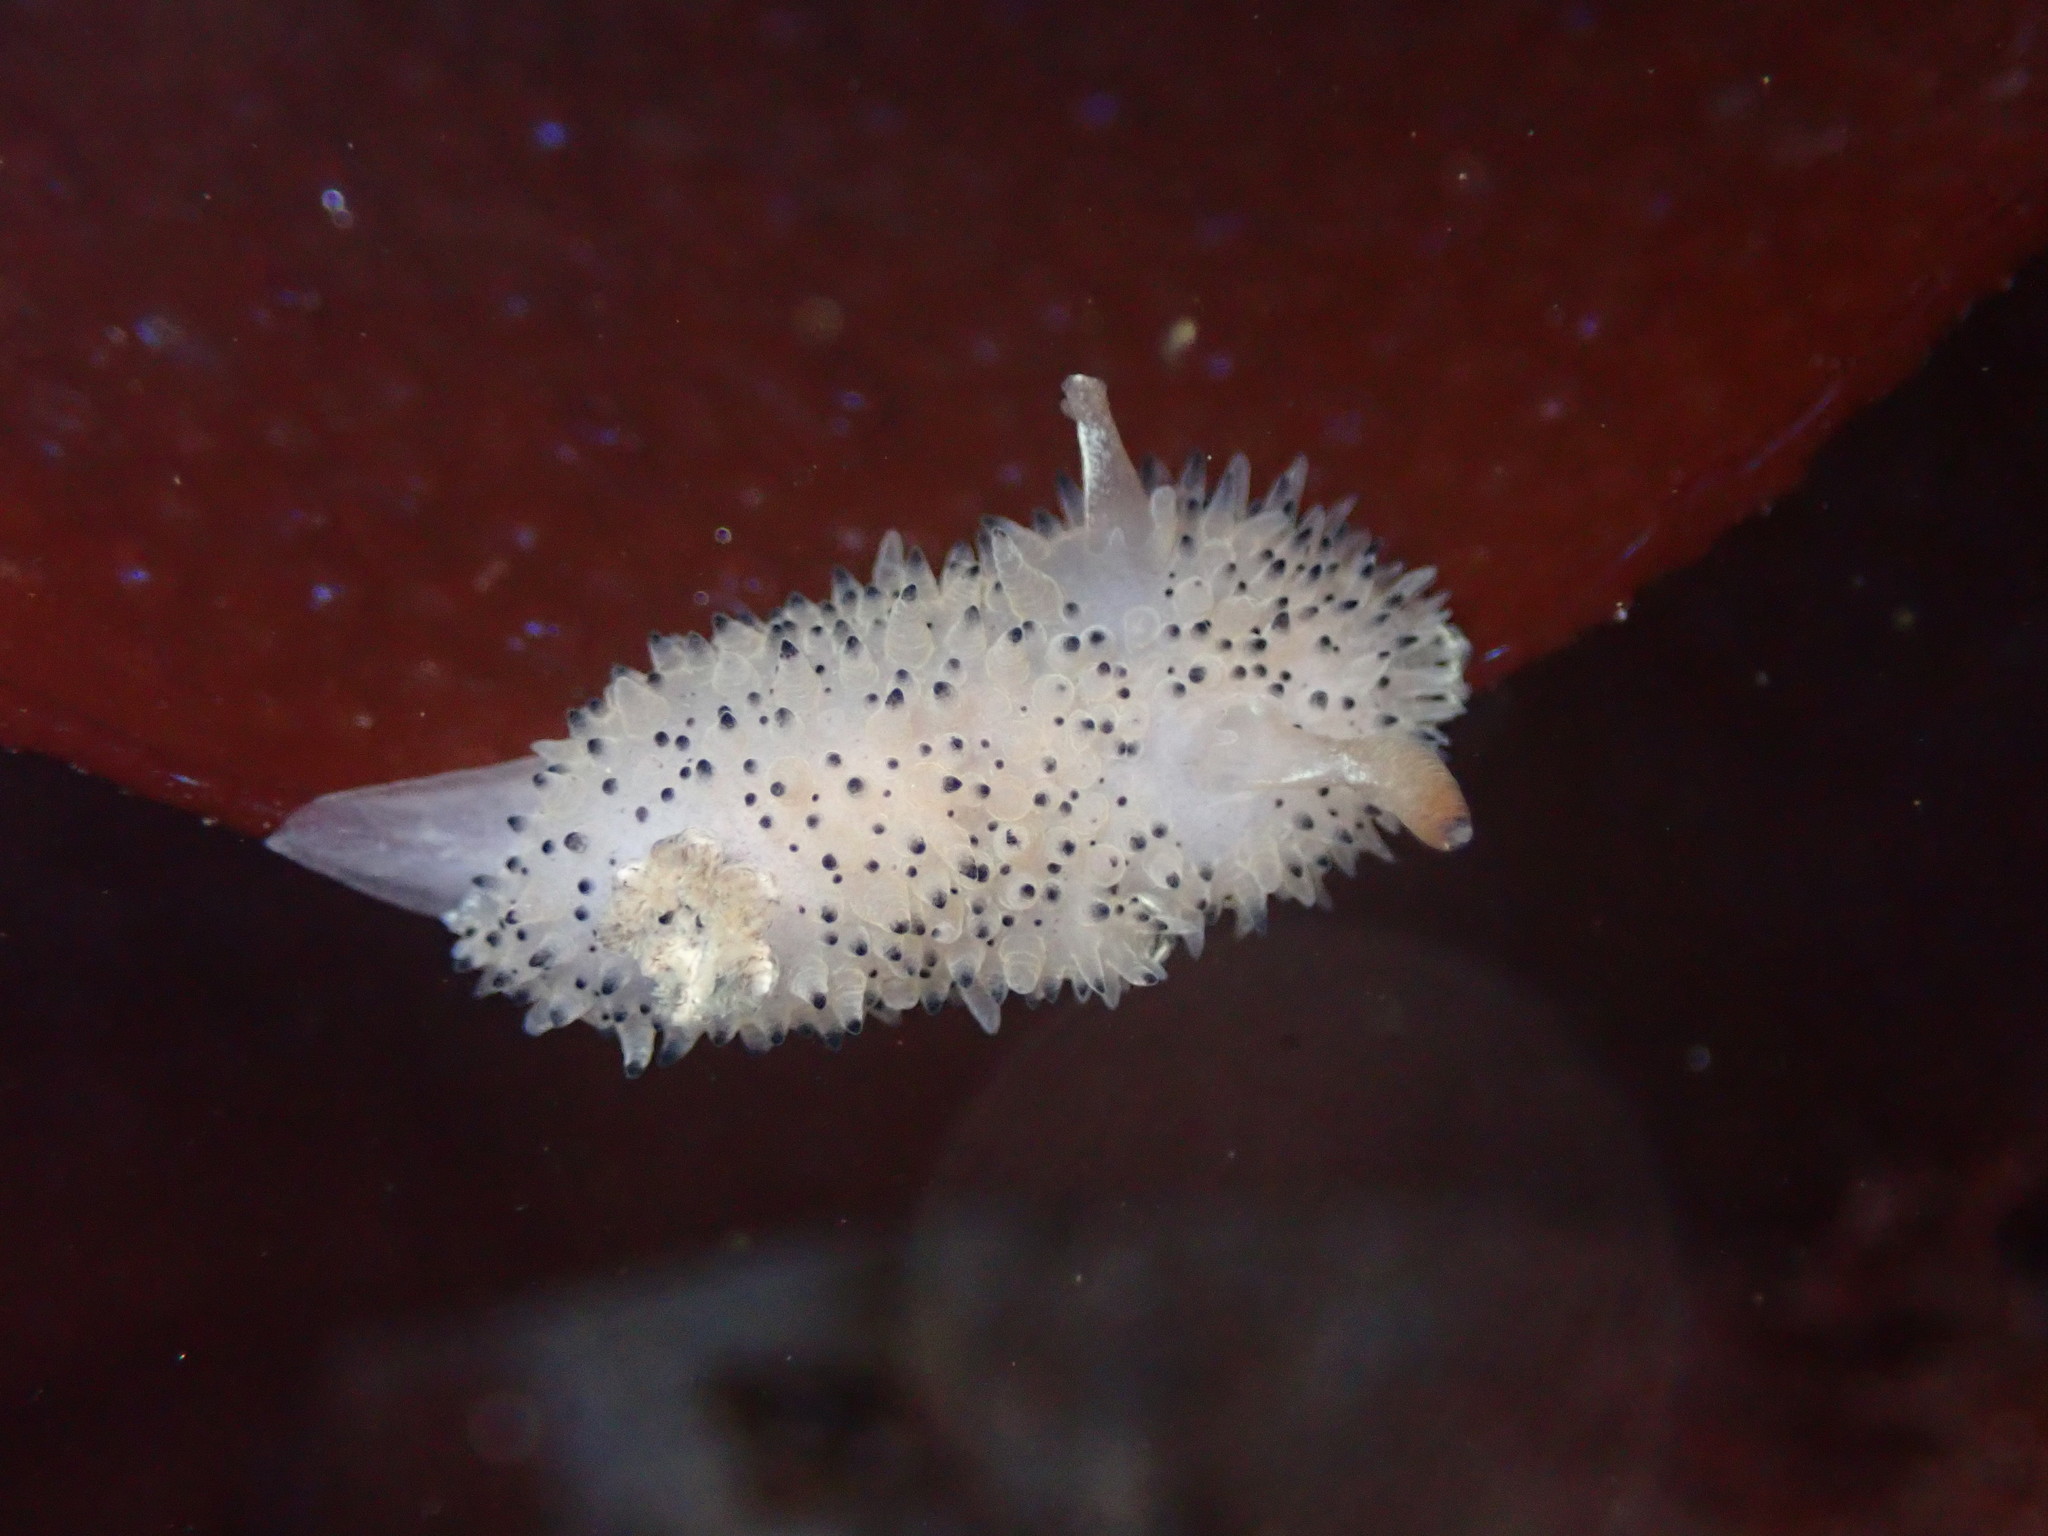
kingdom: Animalia
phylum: Mollusca
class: Gastropoda
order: Nudibranchia
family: Onchidorididae
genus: Acanthodoris
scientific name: Acanthodoris rhodoceras
